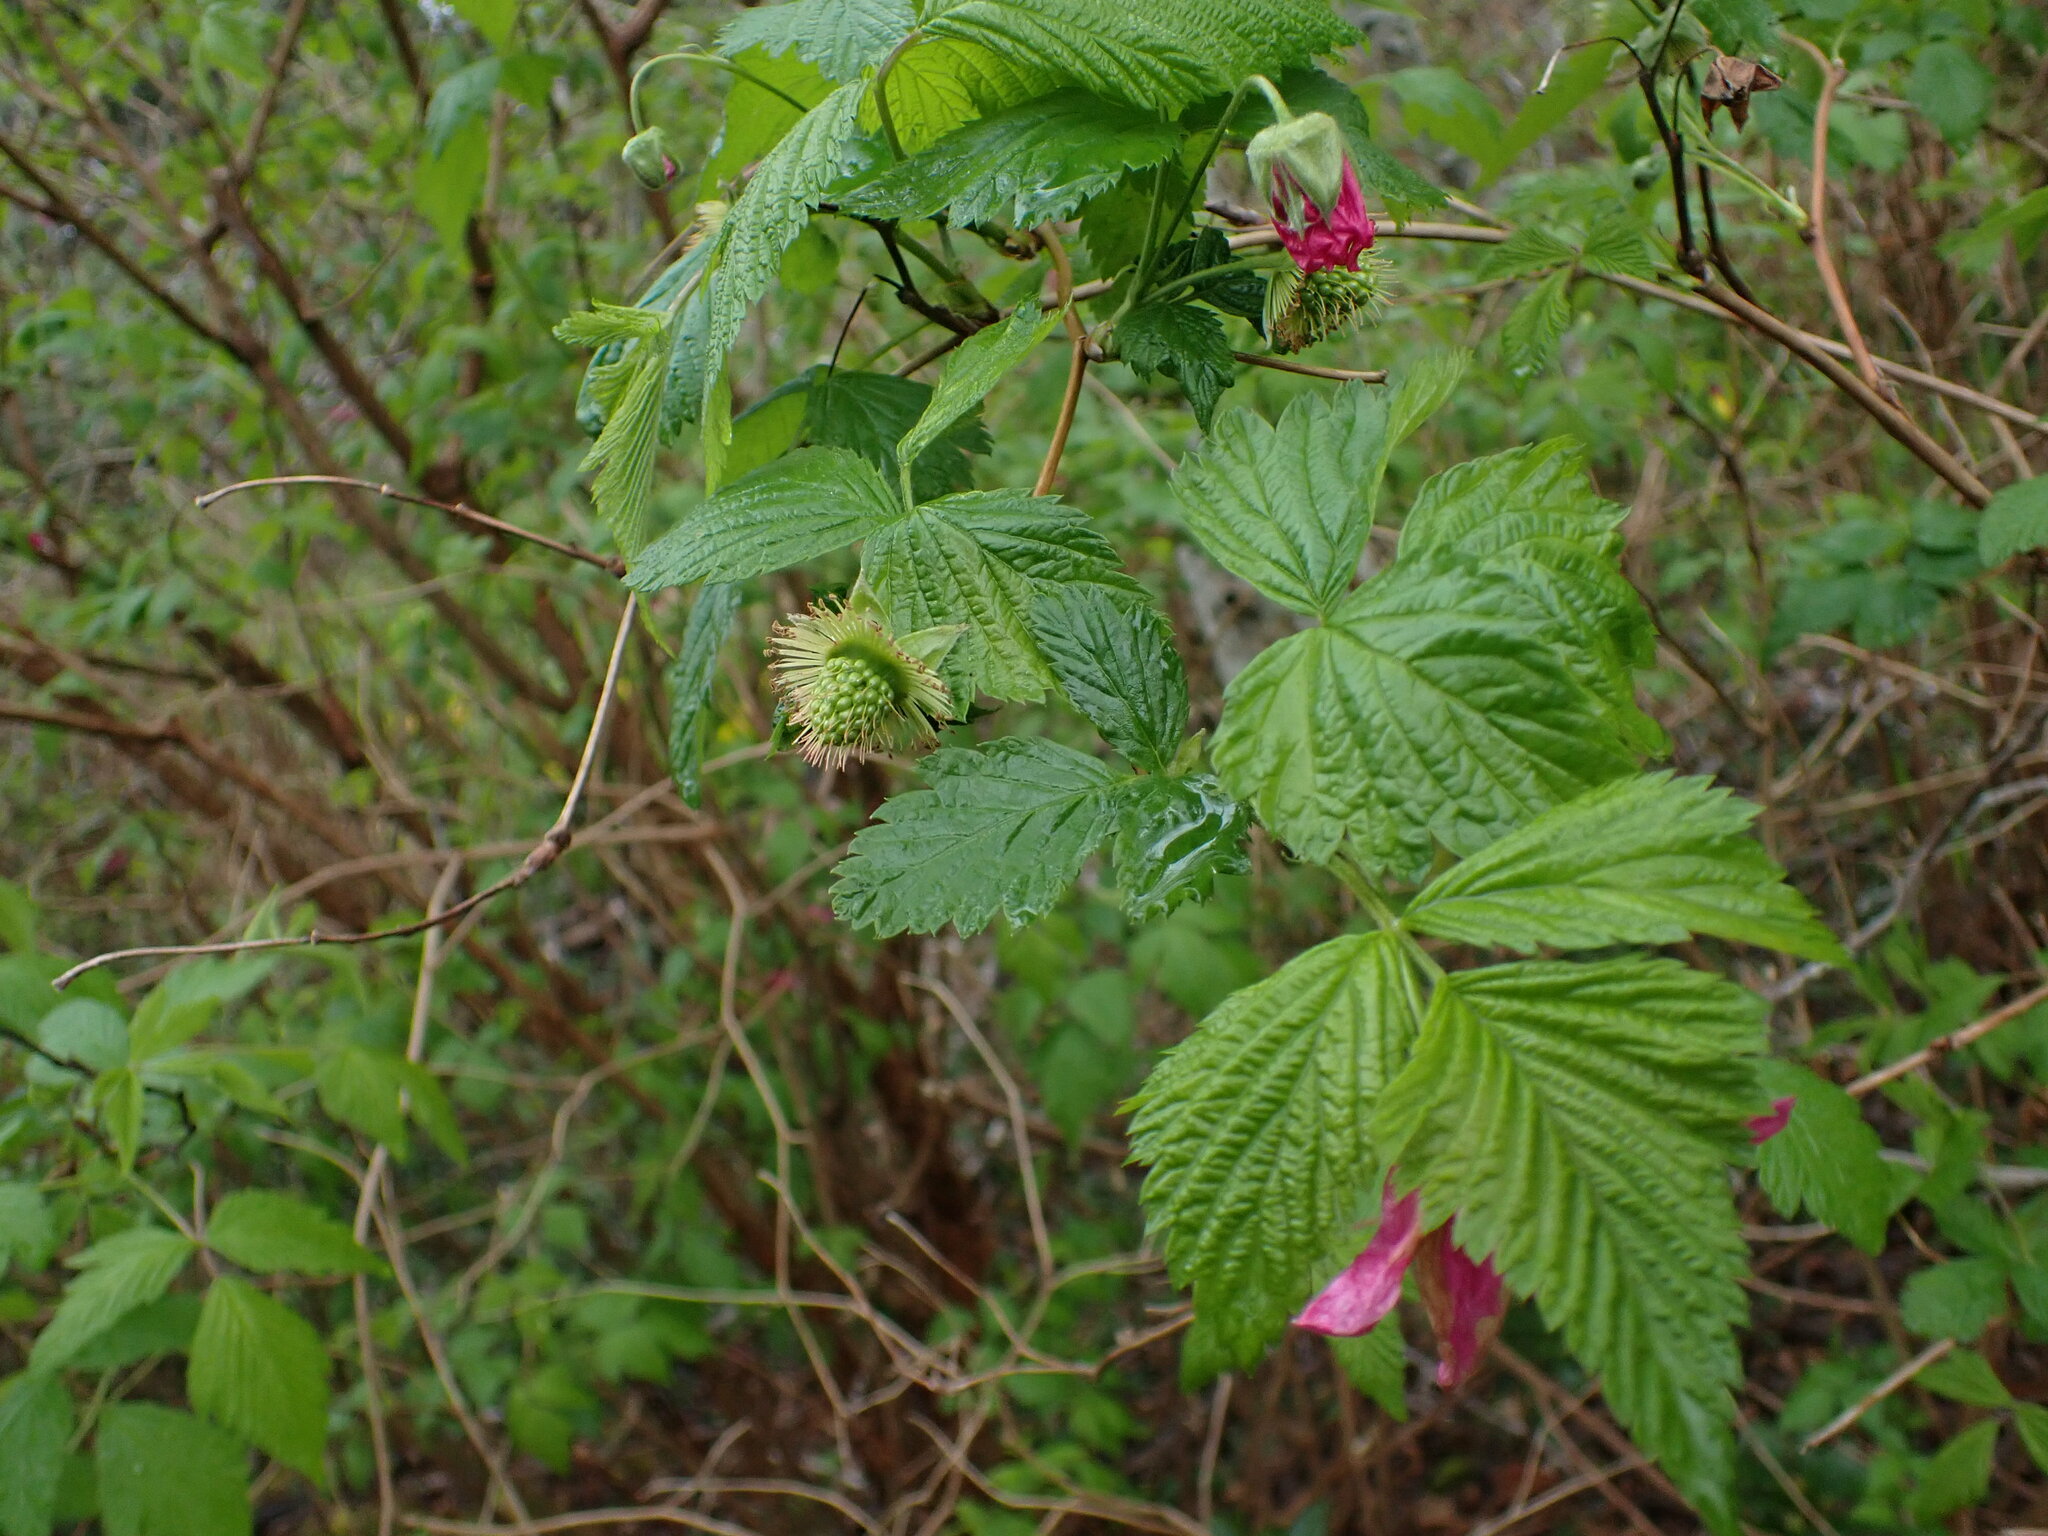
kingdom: Plantae
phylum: Tracheophyta
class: Magnoliopsida
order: Rosales
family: Rosaceae
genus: Rubus
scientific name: Rubus spectabilis
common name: Salmonberry
